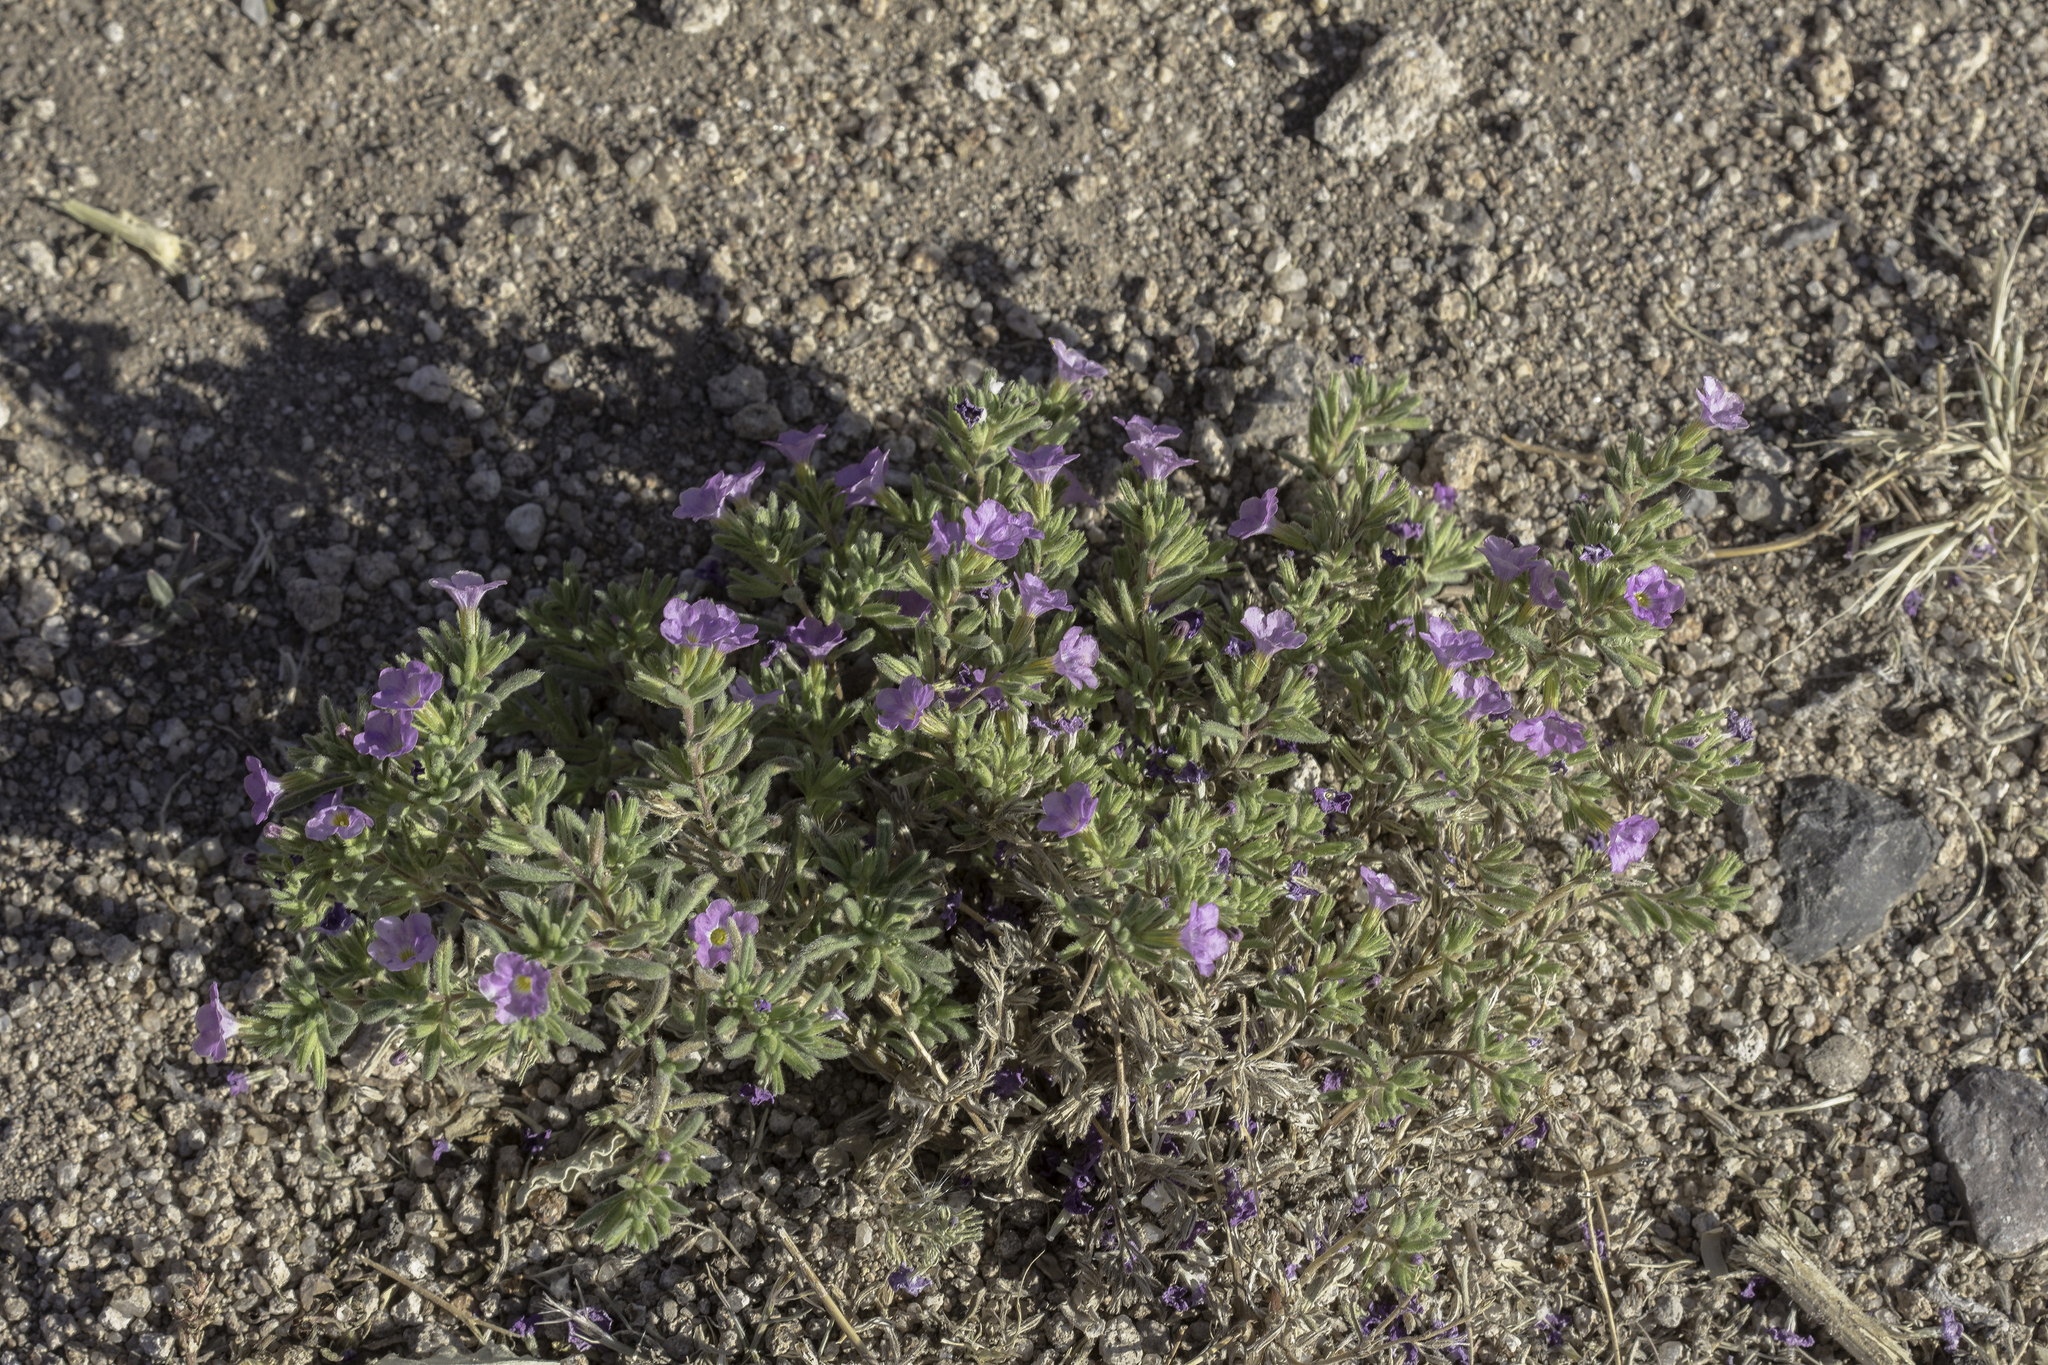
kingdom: Plantae
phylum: Tracheophyta
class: Magnoliopsida
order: Boraginales
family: Namaceae
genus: Nama
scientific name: Nama hispida
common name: Bristly nama
